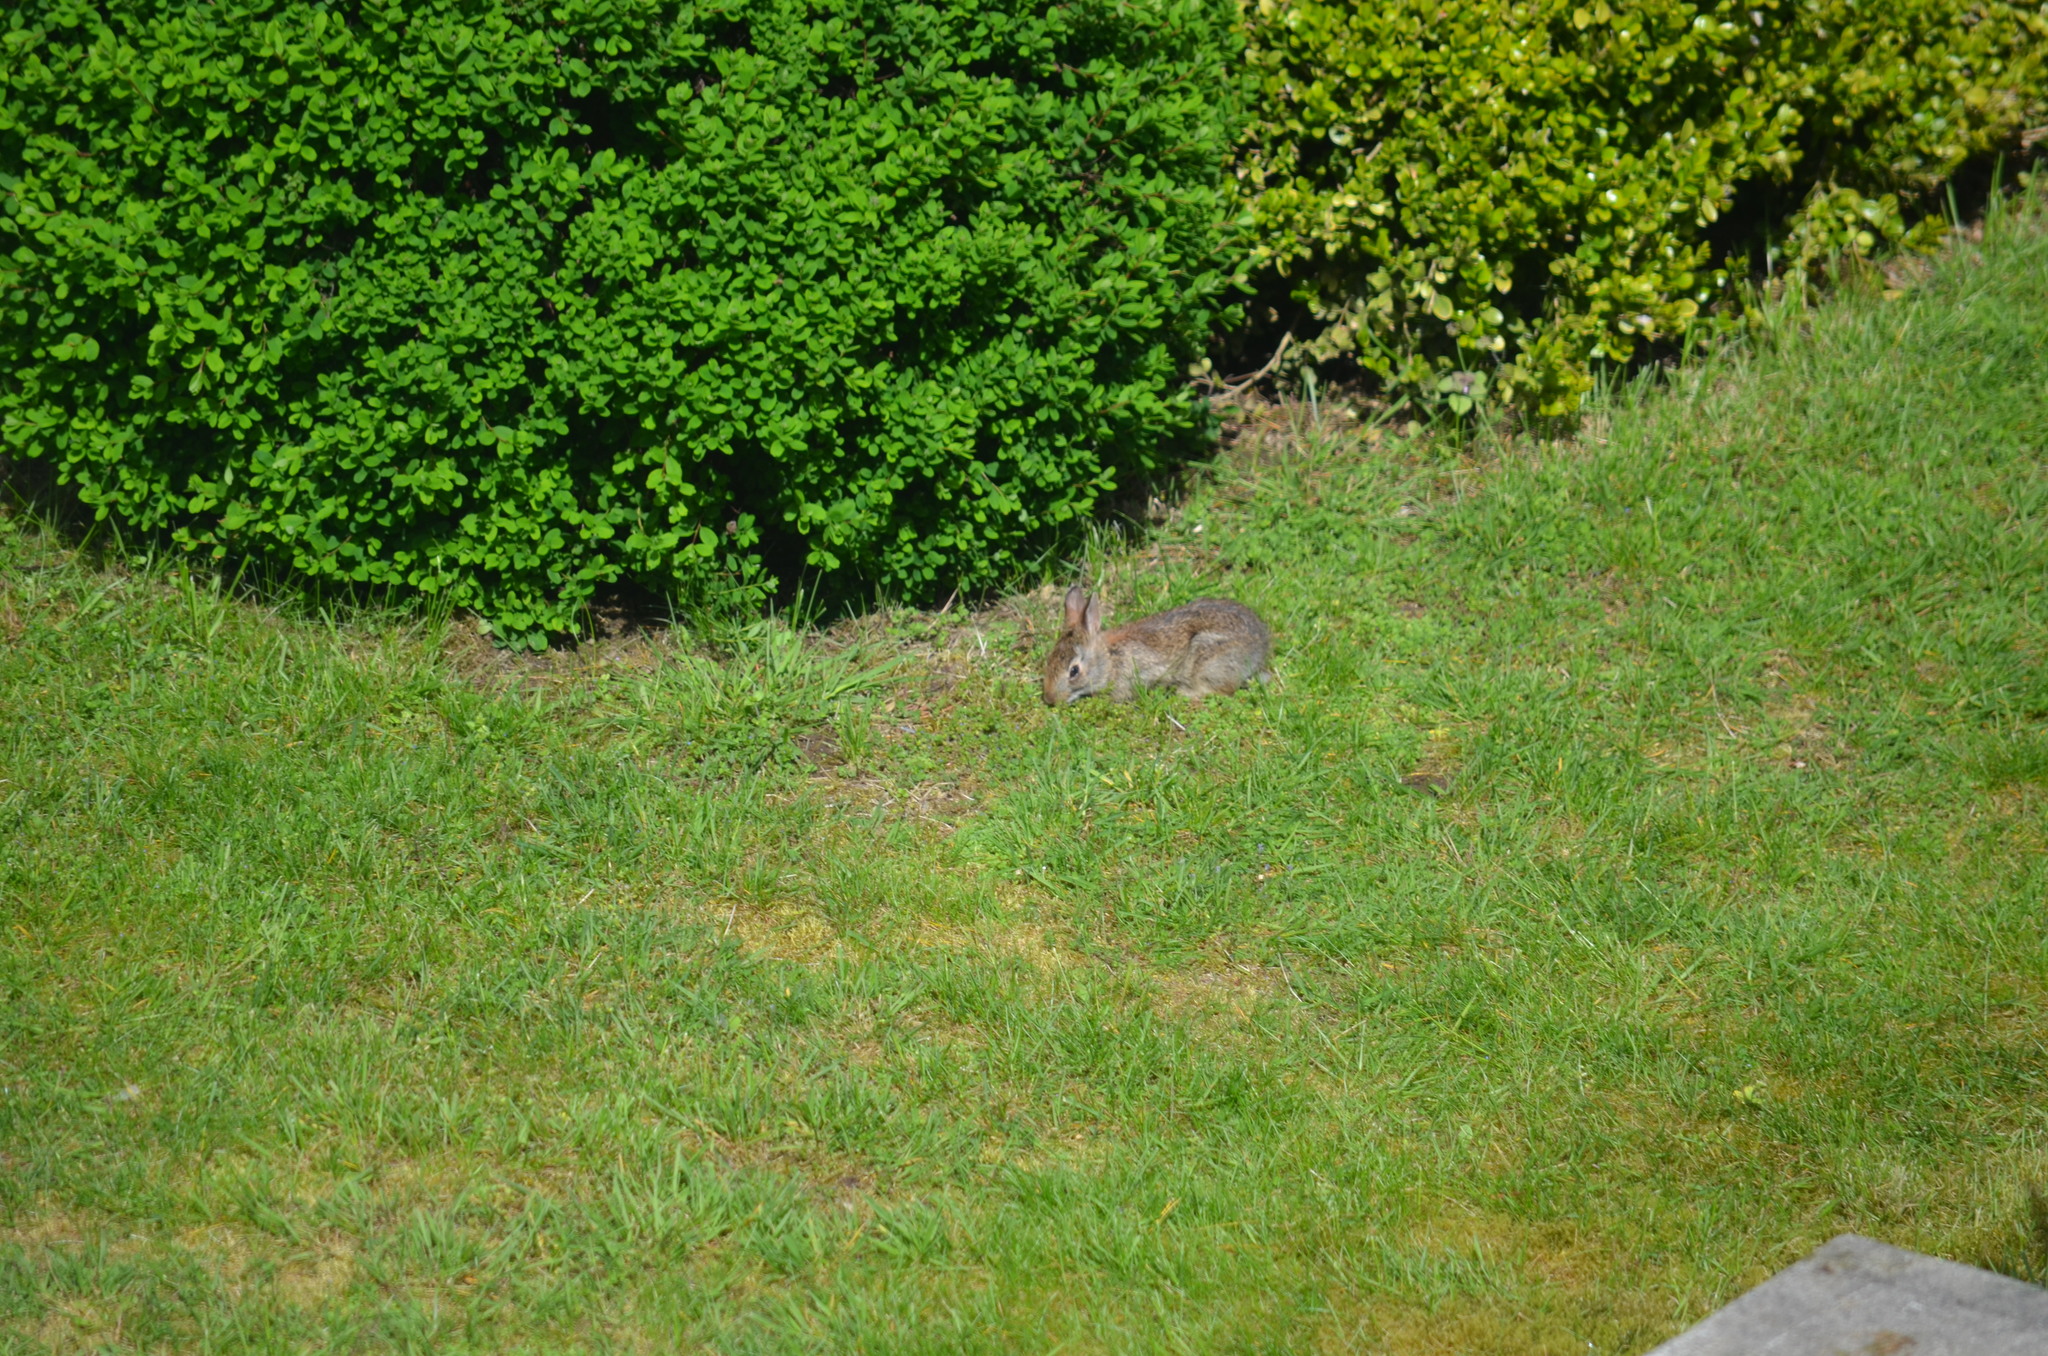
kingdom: Animalia
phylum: Chordata
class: Mammalia
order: Lagomorpha
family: Leporidae
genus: Sylvilagus
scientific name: Sylvilagus floridanus
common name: Eastern cottontail
